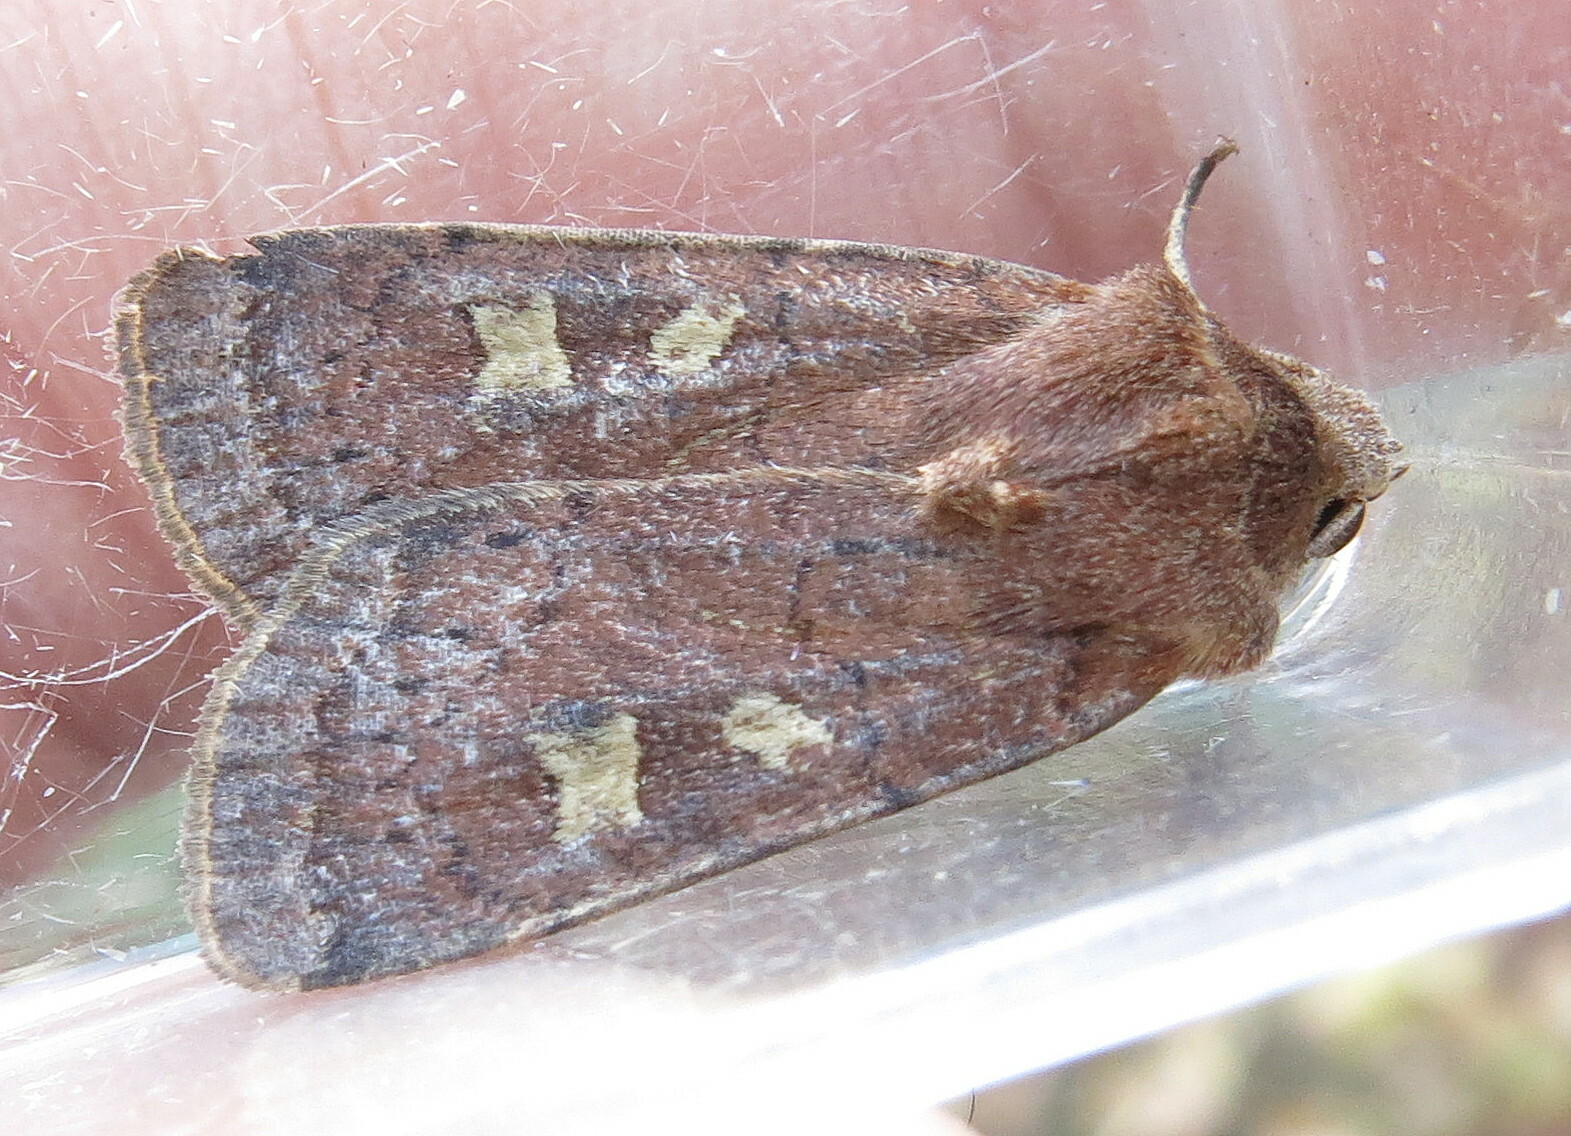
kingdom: Animalia
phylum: Arthropoda
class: Insecta
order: Lepidoptera
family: Noctuidae
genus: Xestia
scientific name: Xestia xanthographa
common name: Square-spot rustic
